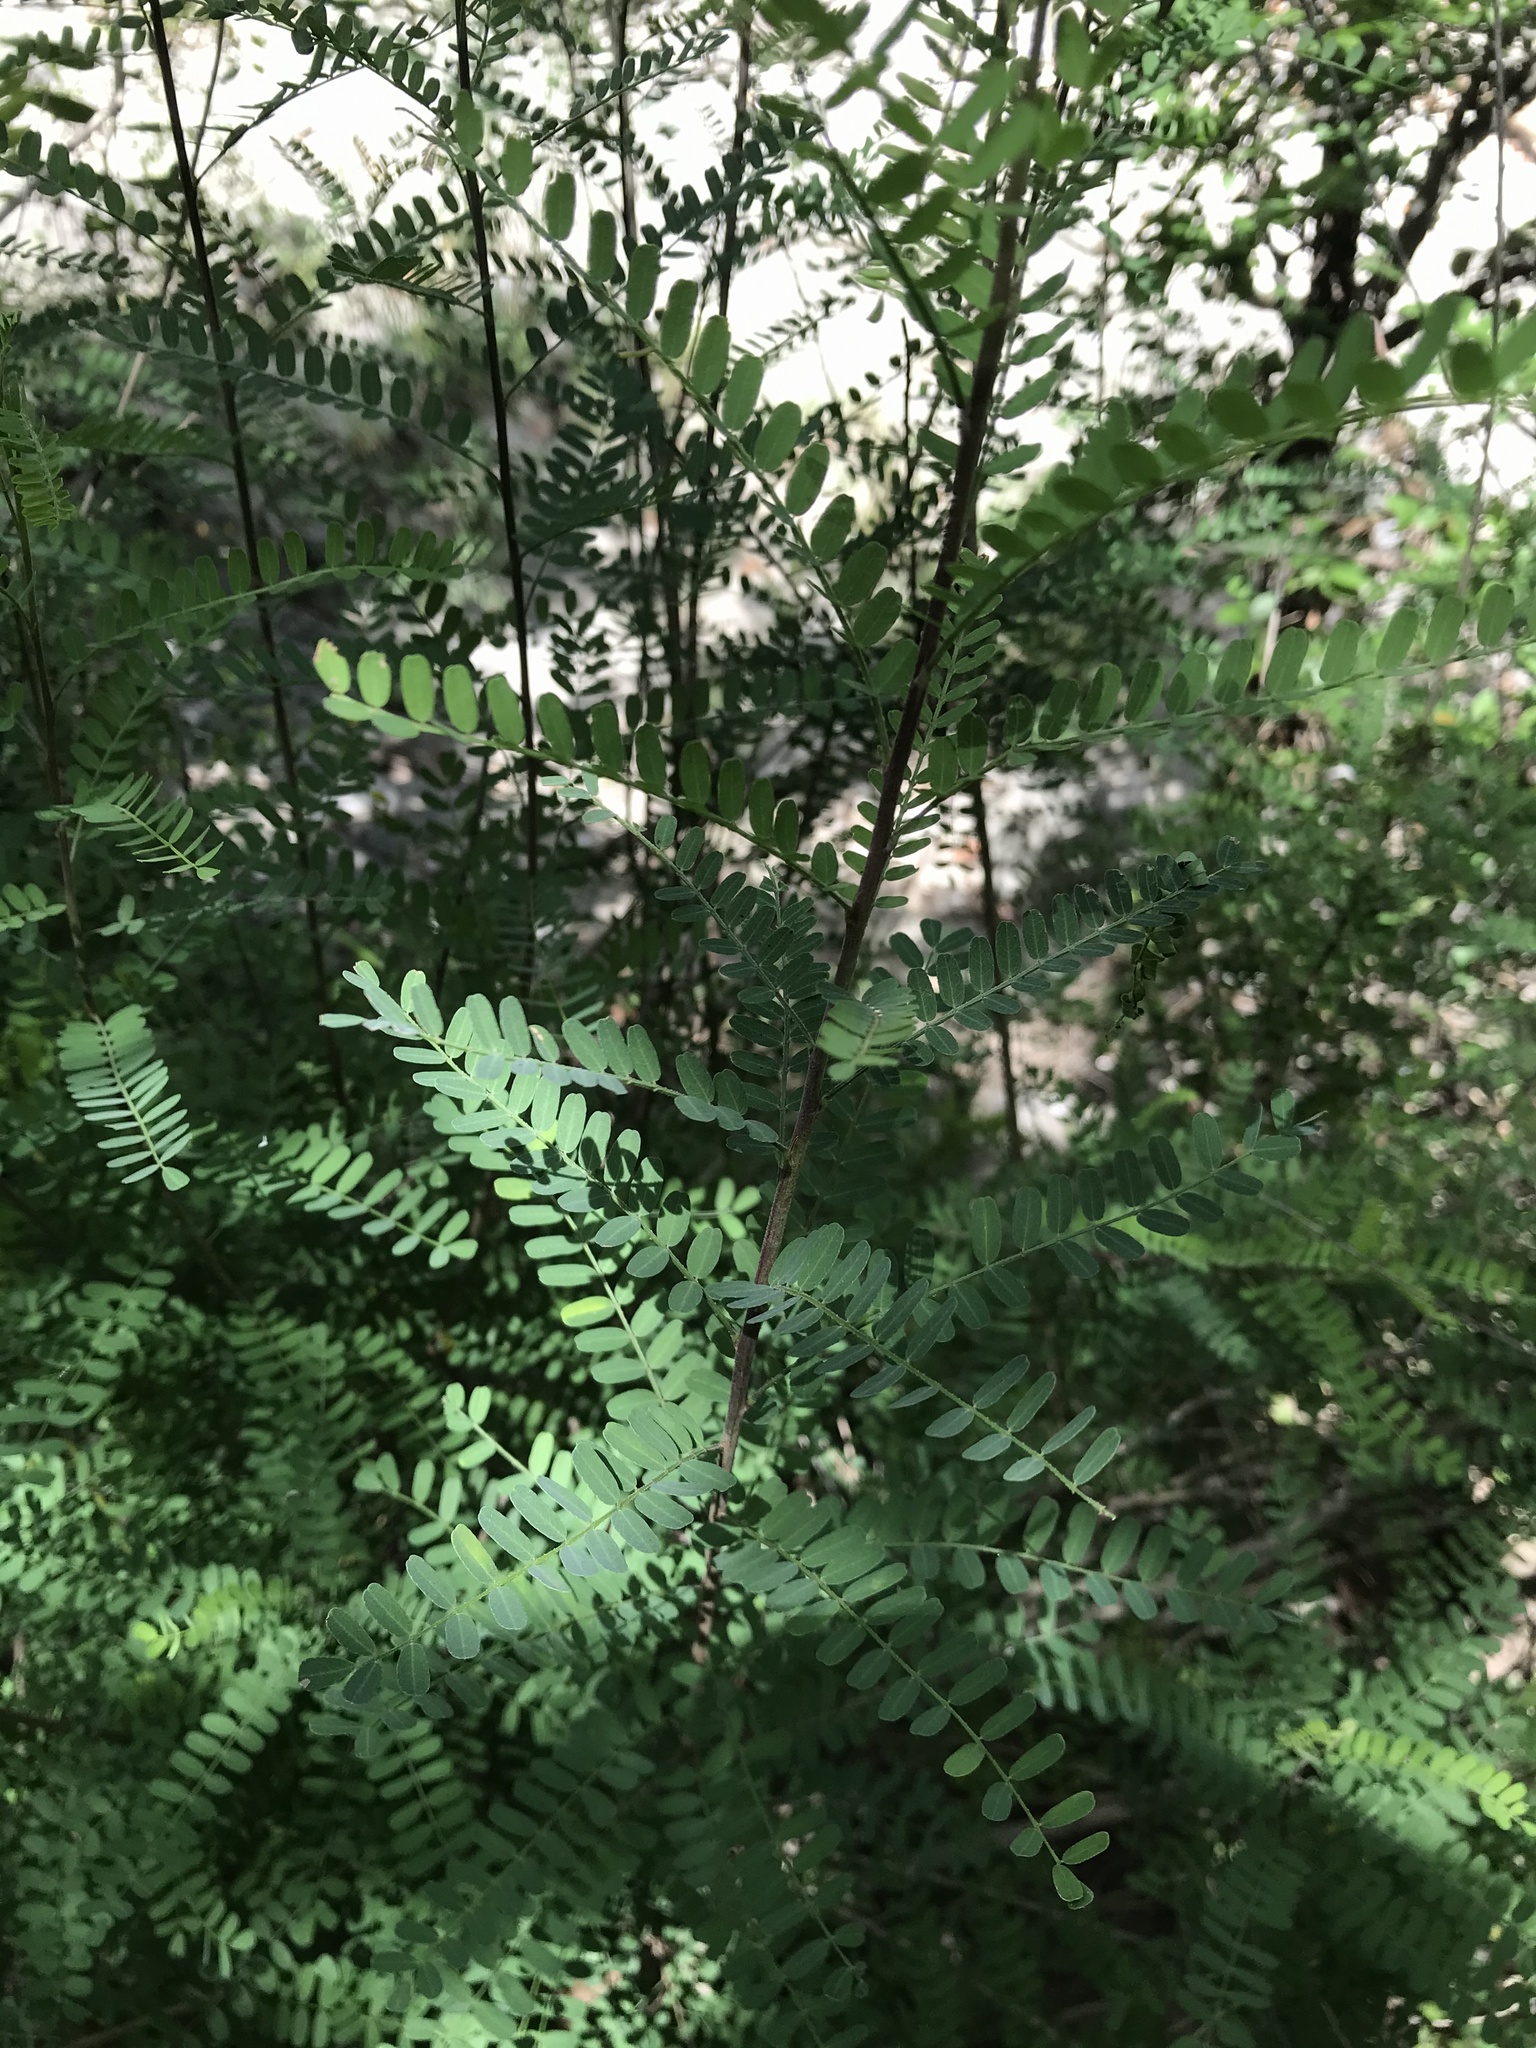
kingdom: Plantae
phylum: Tracheophyta
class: Magnoliopsida
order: Fabales
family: Fabaceae
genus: Eysenhardtia
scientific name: Eysenhardtia texana
